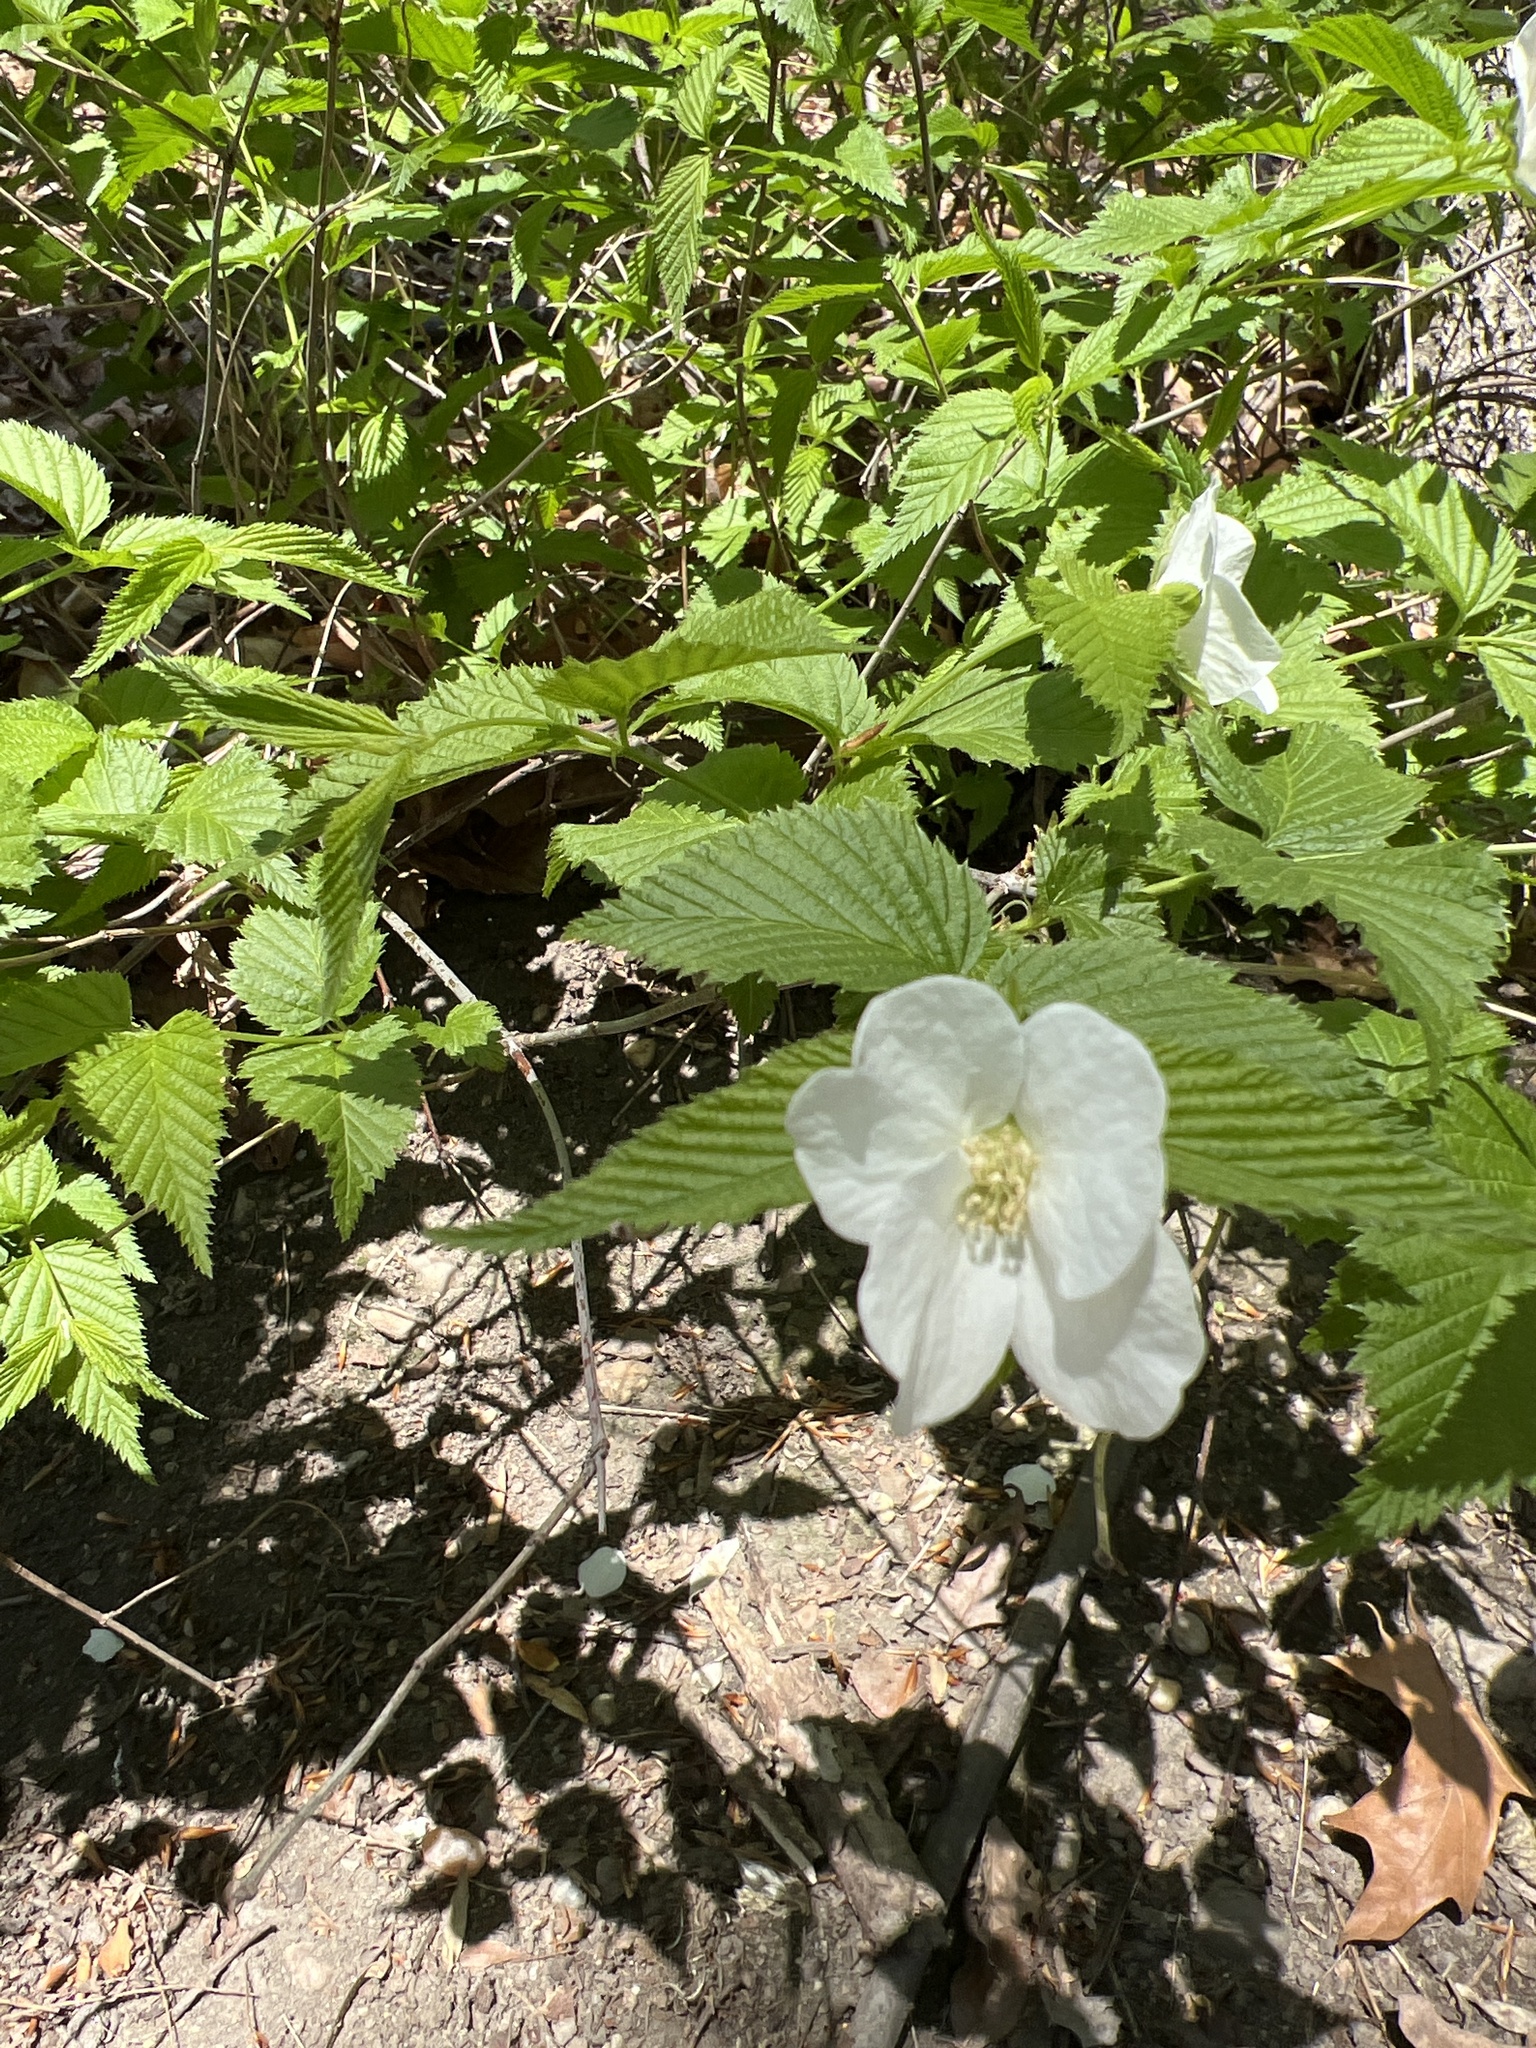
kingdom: Plantae
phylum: Tracheophyta
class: Magnoliopsida
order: Rosales
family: Rosaceae
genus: Rhodotypos
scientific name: Rhodotypos scandens
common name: Jetbead
